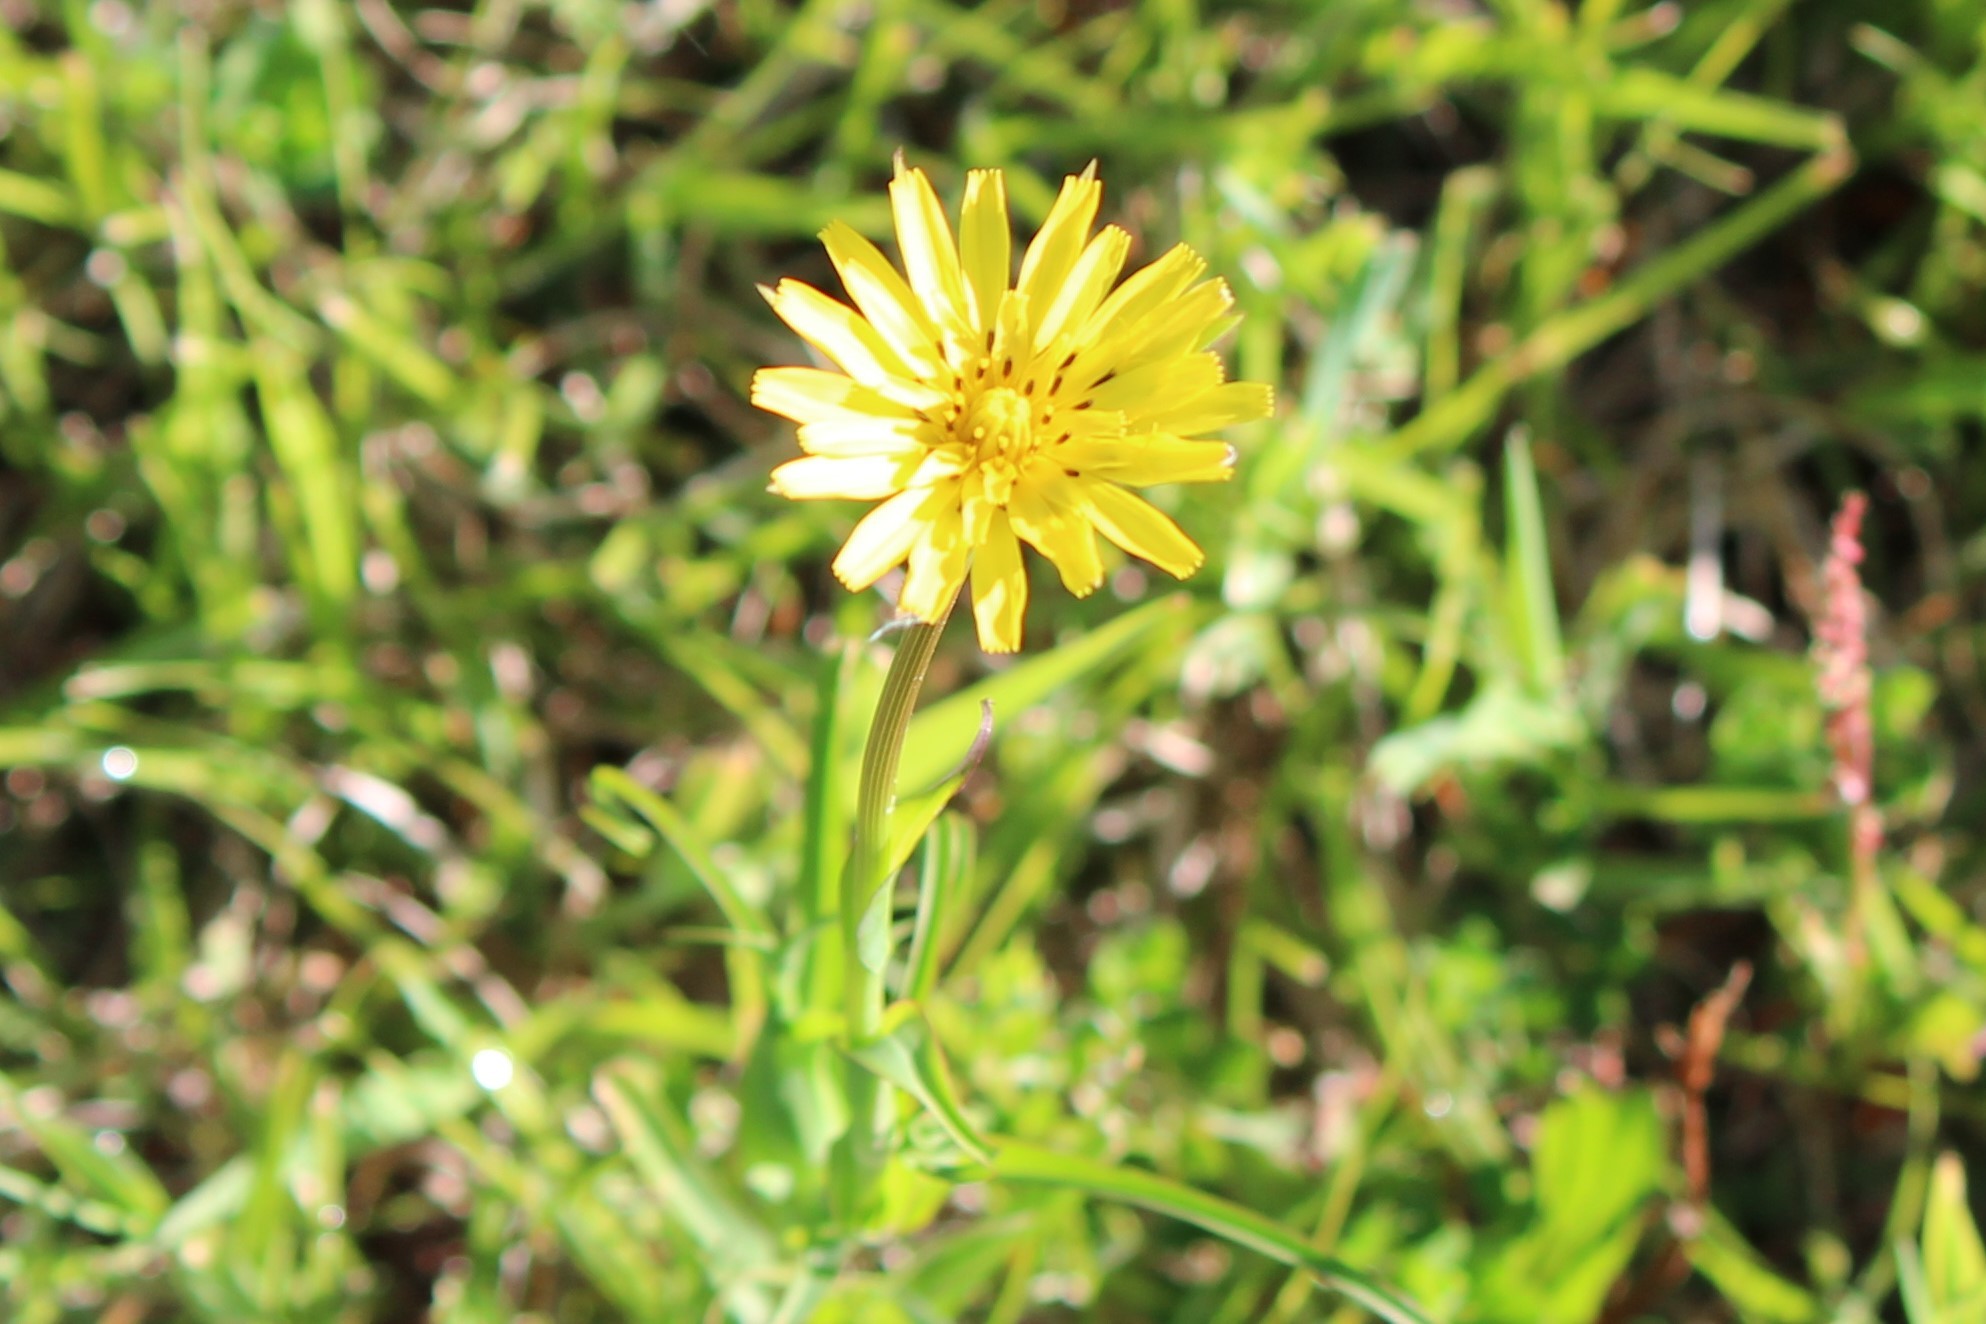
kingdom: Plantae
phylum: Tracheophyta
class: Magnoliopsida
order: Asterales
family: Asteraceae
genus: Tragopogon
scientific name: Tragopogon pratensis
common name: Goat's-beard
